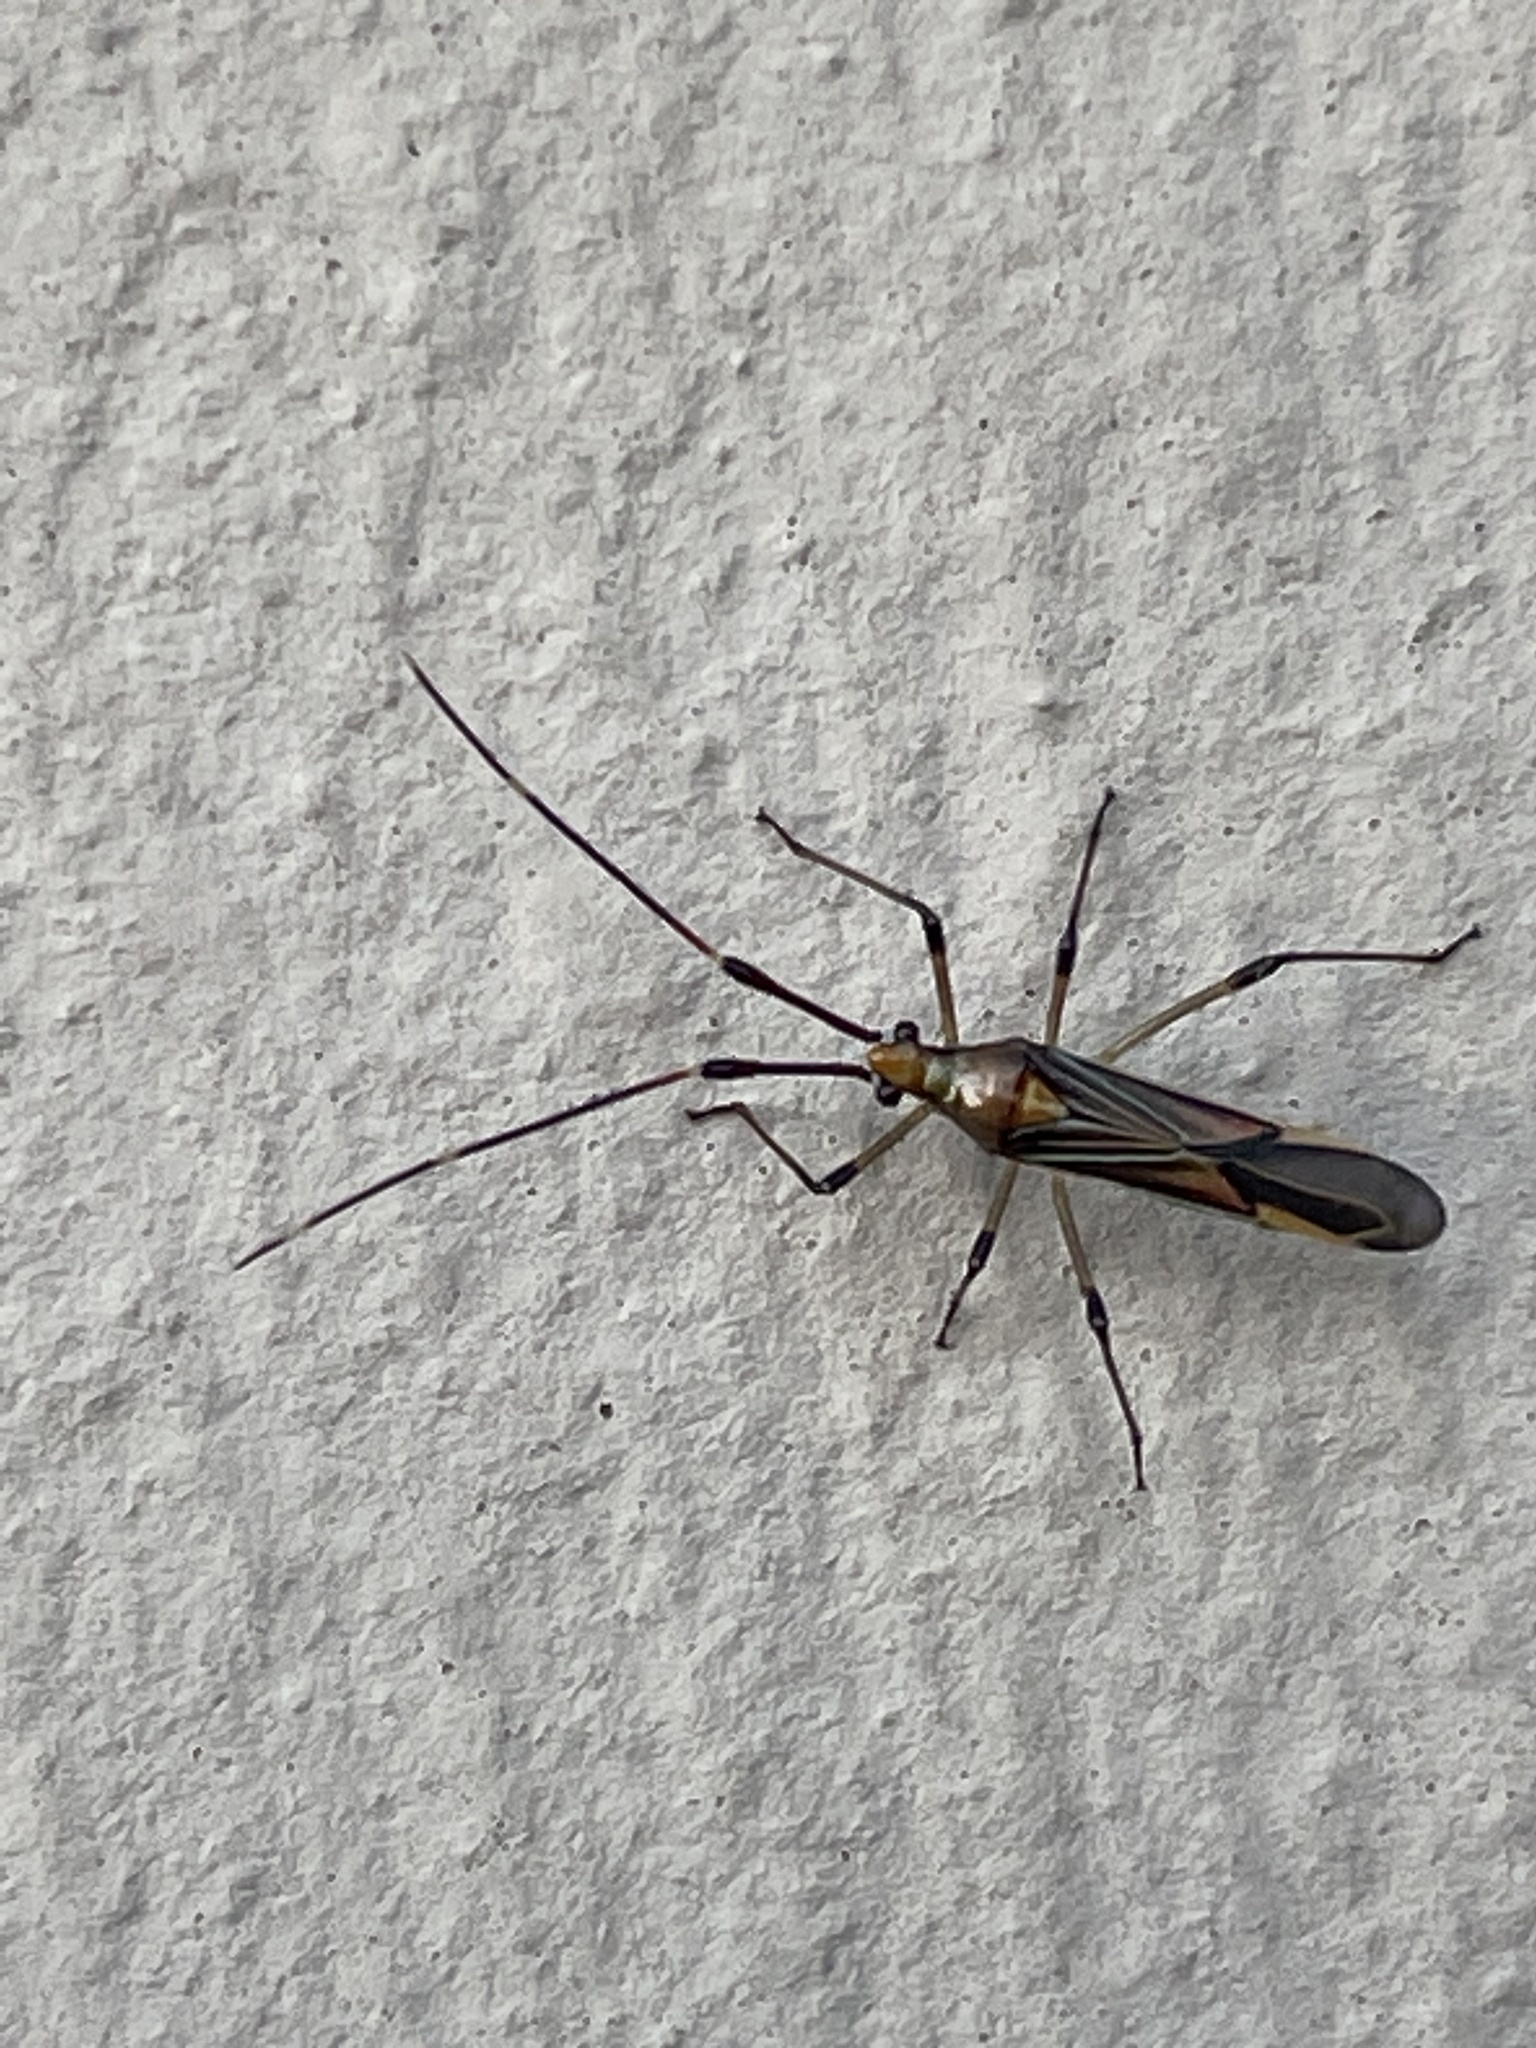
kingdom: Animalia
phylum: Arthropoda
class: Insecta
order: Hemiptera
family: Miridae
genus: Rayieria
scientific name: Rayieria
